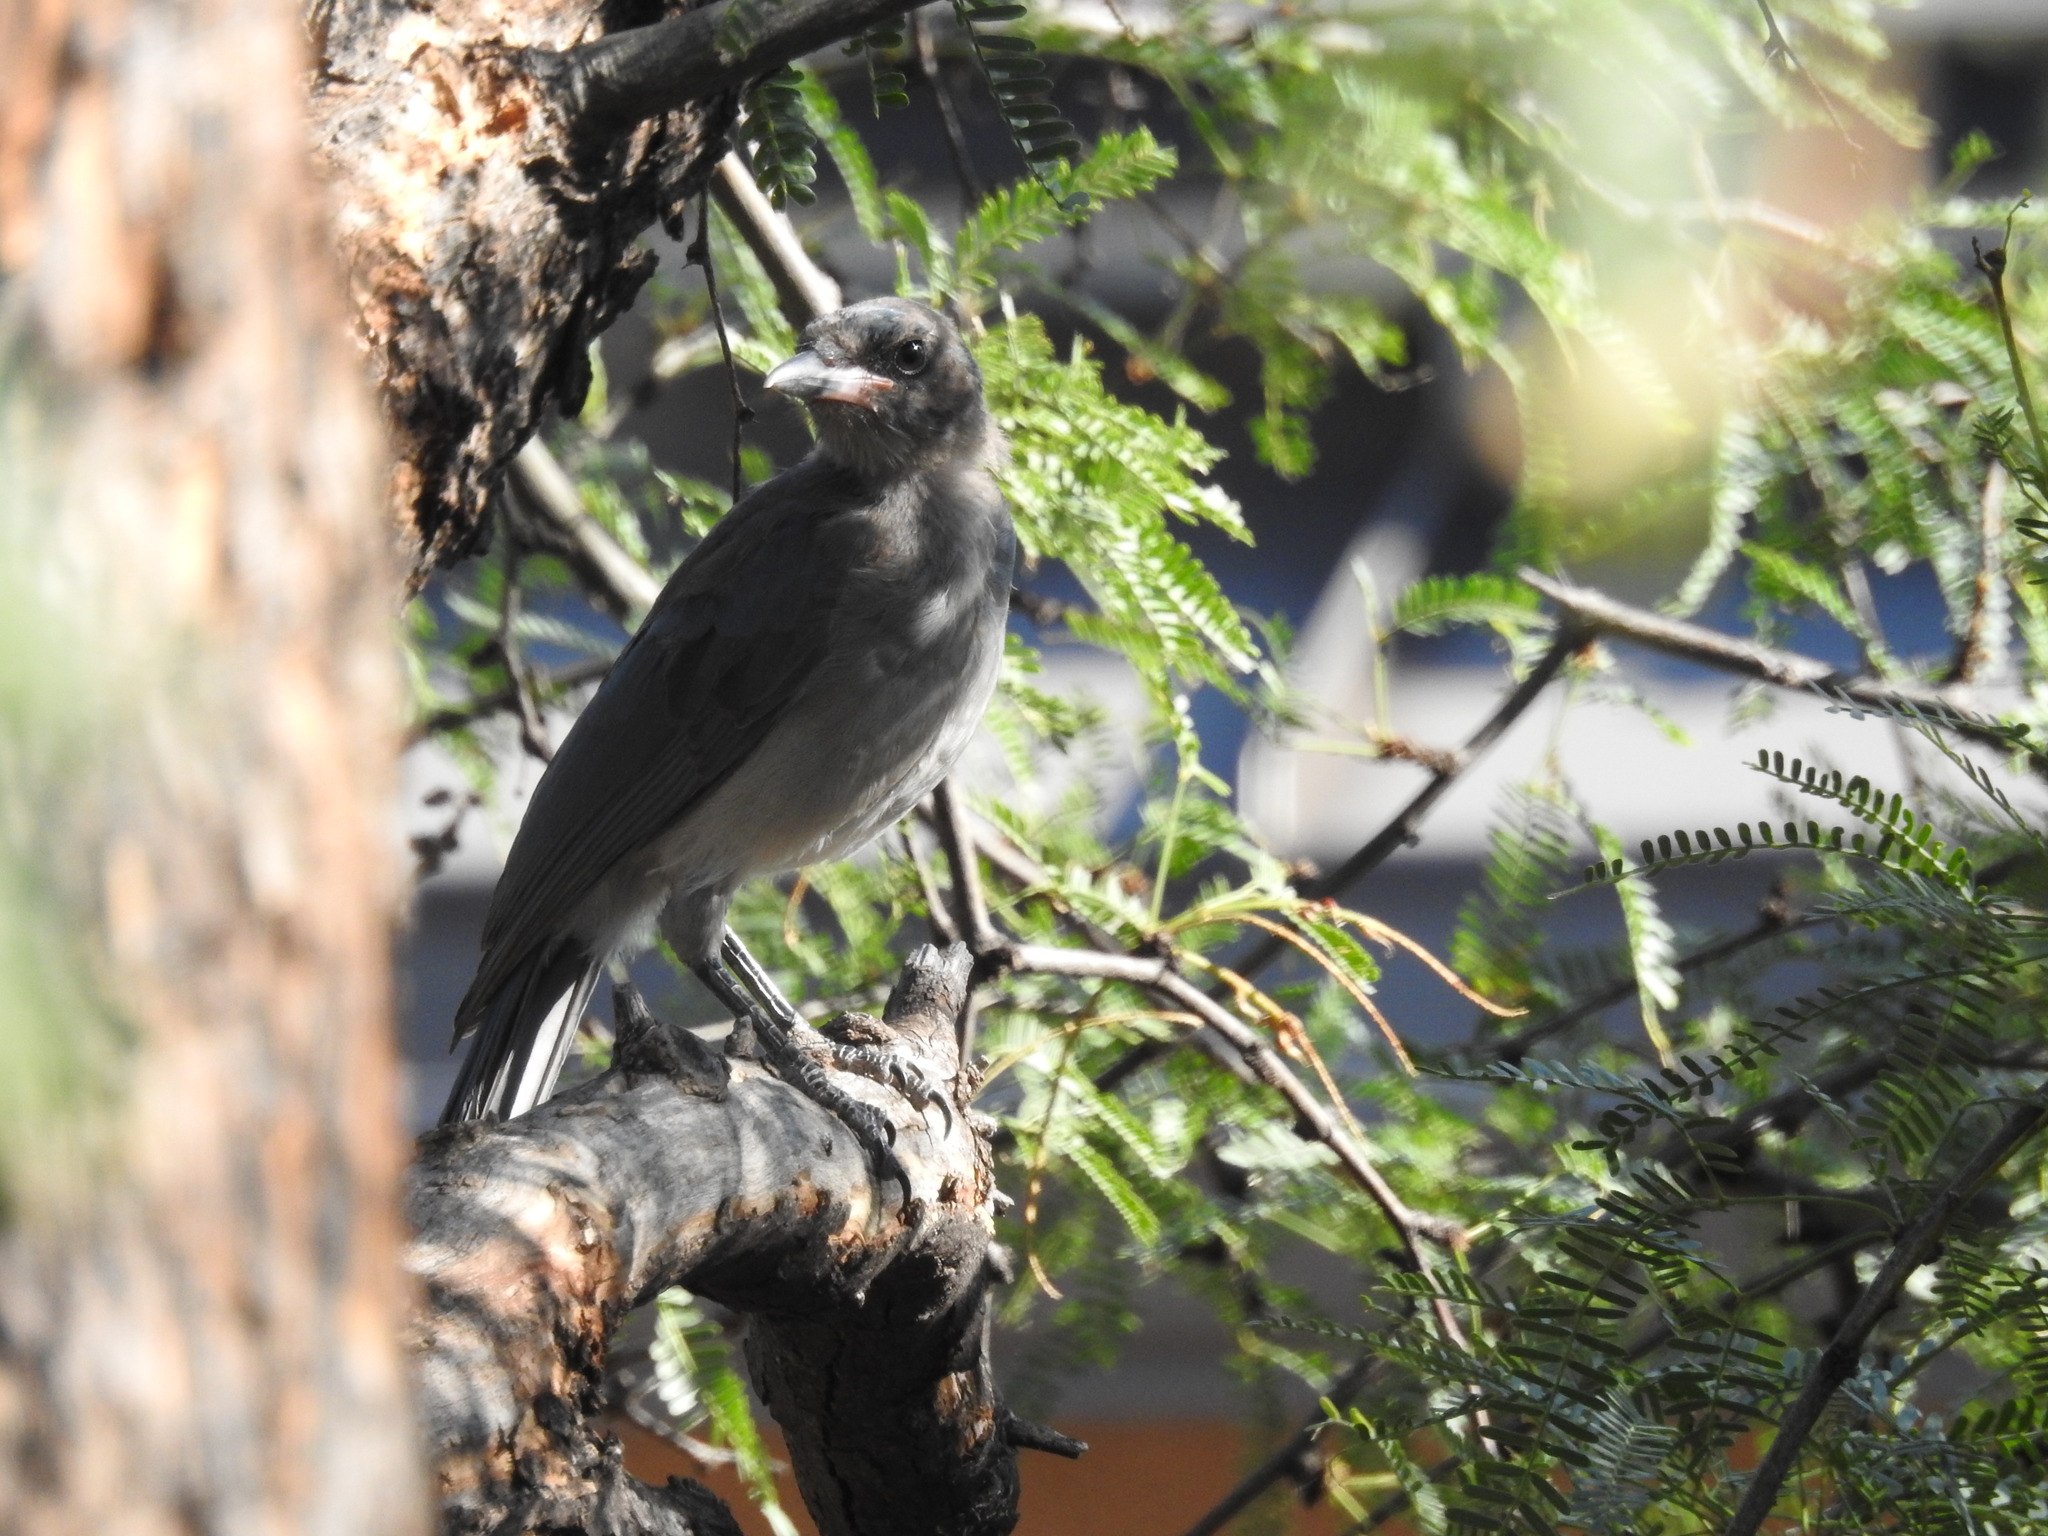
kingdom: Animalia
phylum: Chordata
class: Aves
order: Passeriformes
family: Corvidae
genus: Aphelocoma
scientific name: Aphelocoma wollweberi
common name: Mexican jay
